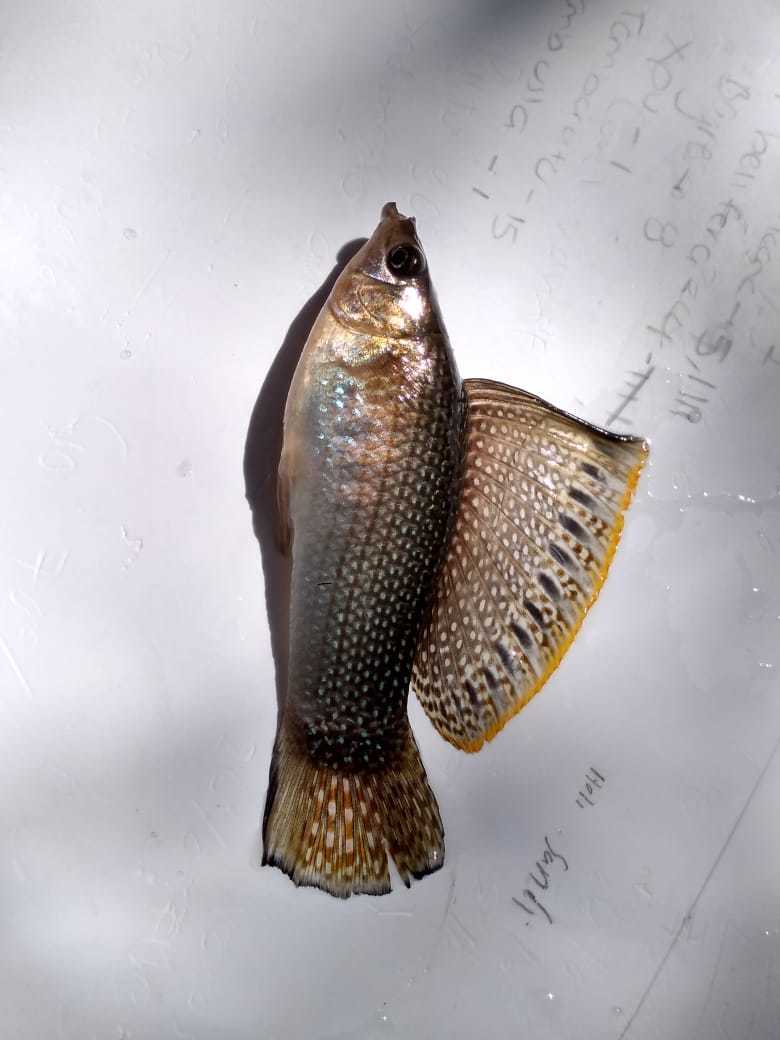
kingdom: Animalia
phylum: Chordata
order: Cyprinodontiformes
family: Poeciliidae
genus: Poecilia
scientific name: Poecilia velifera
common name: Sail-fin molly
